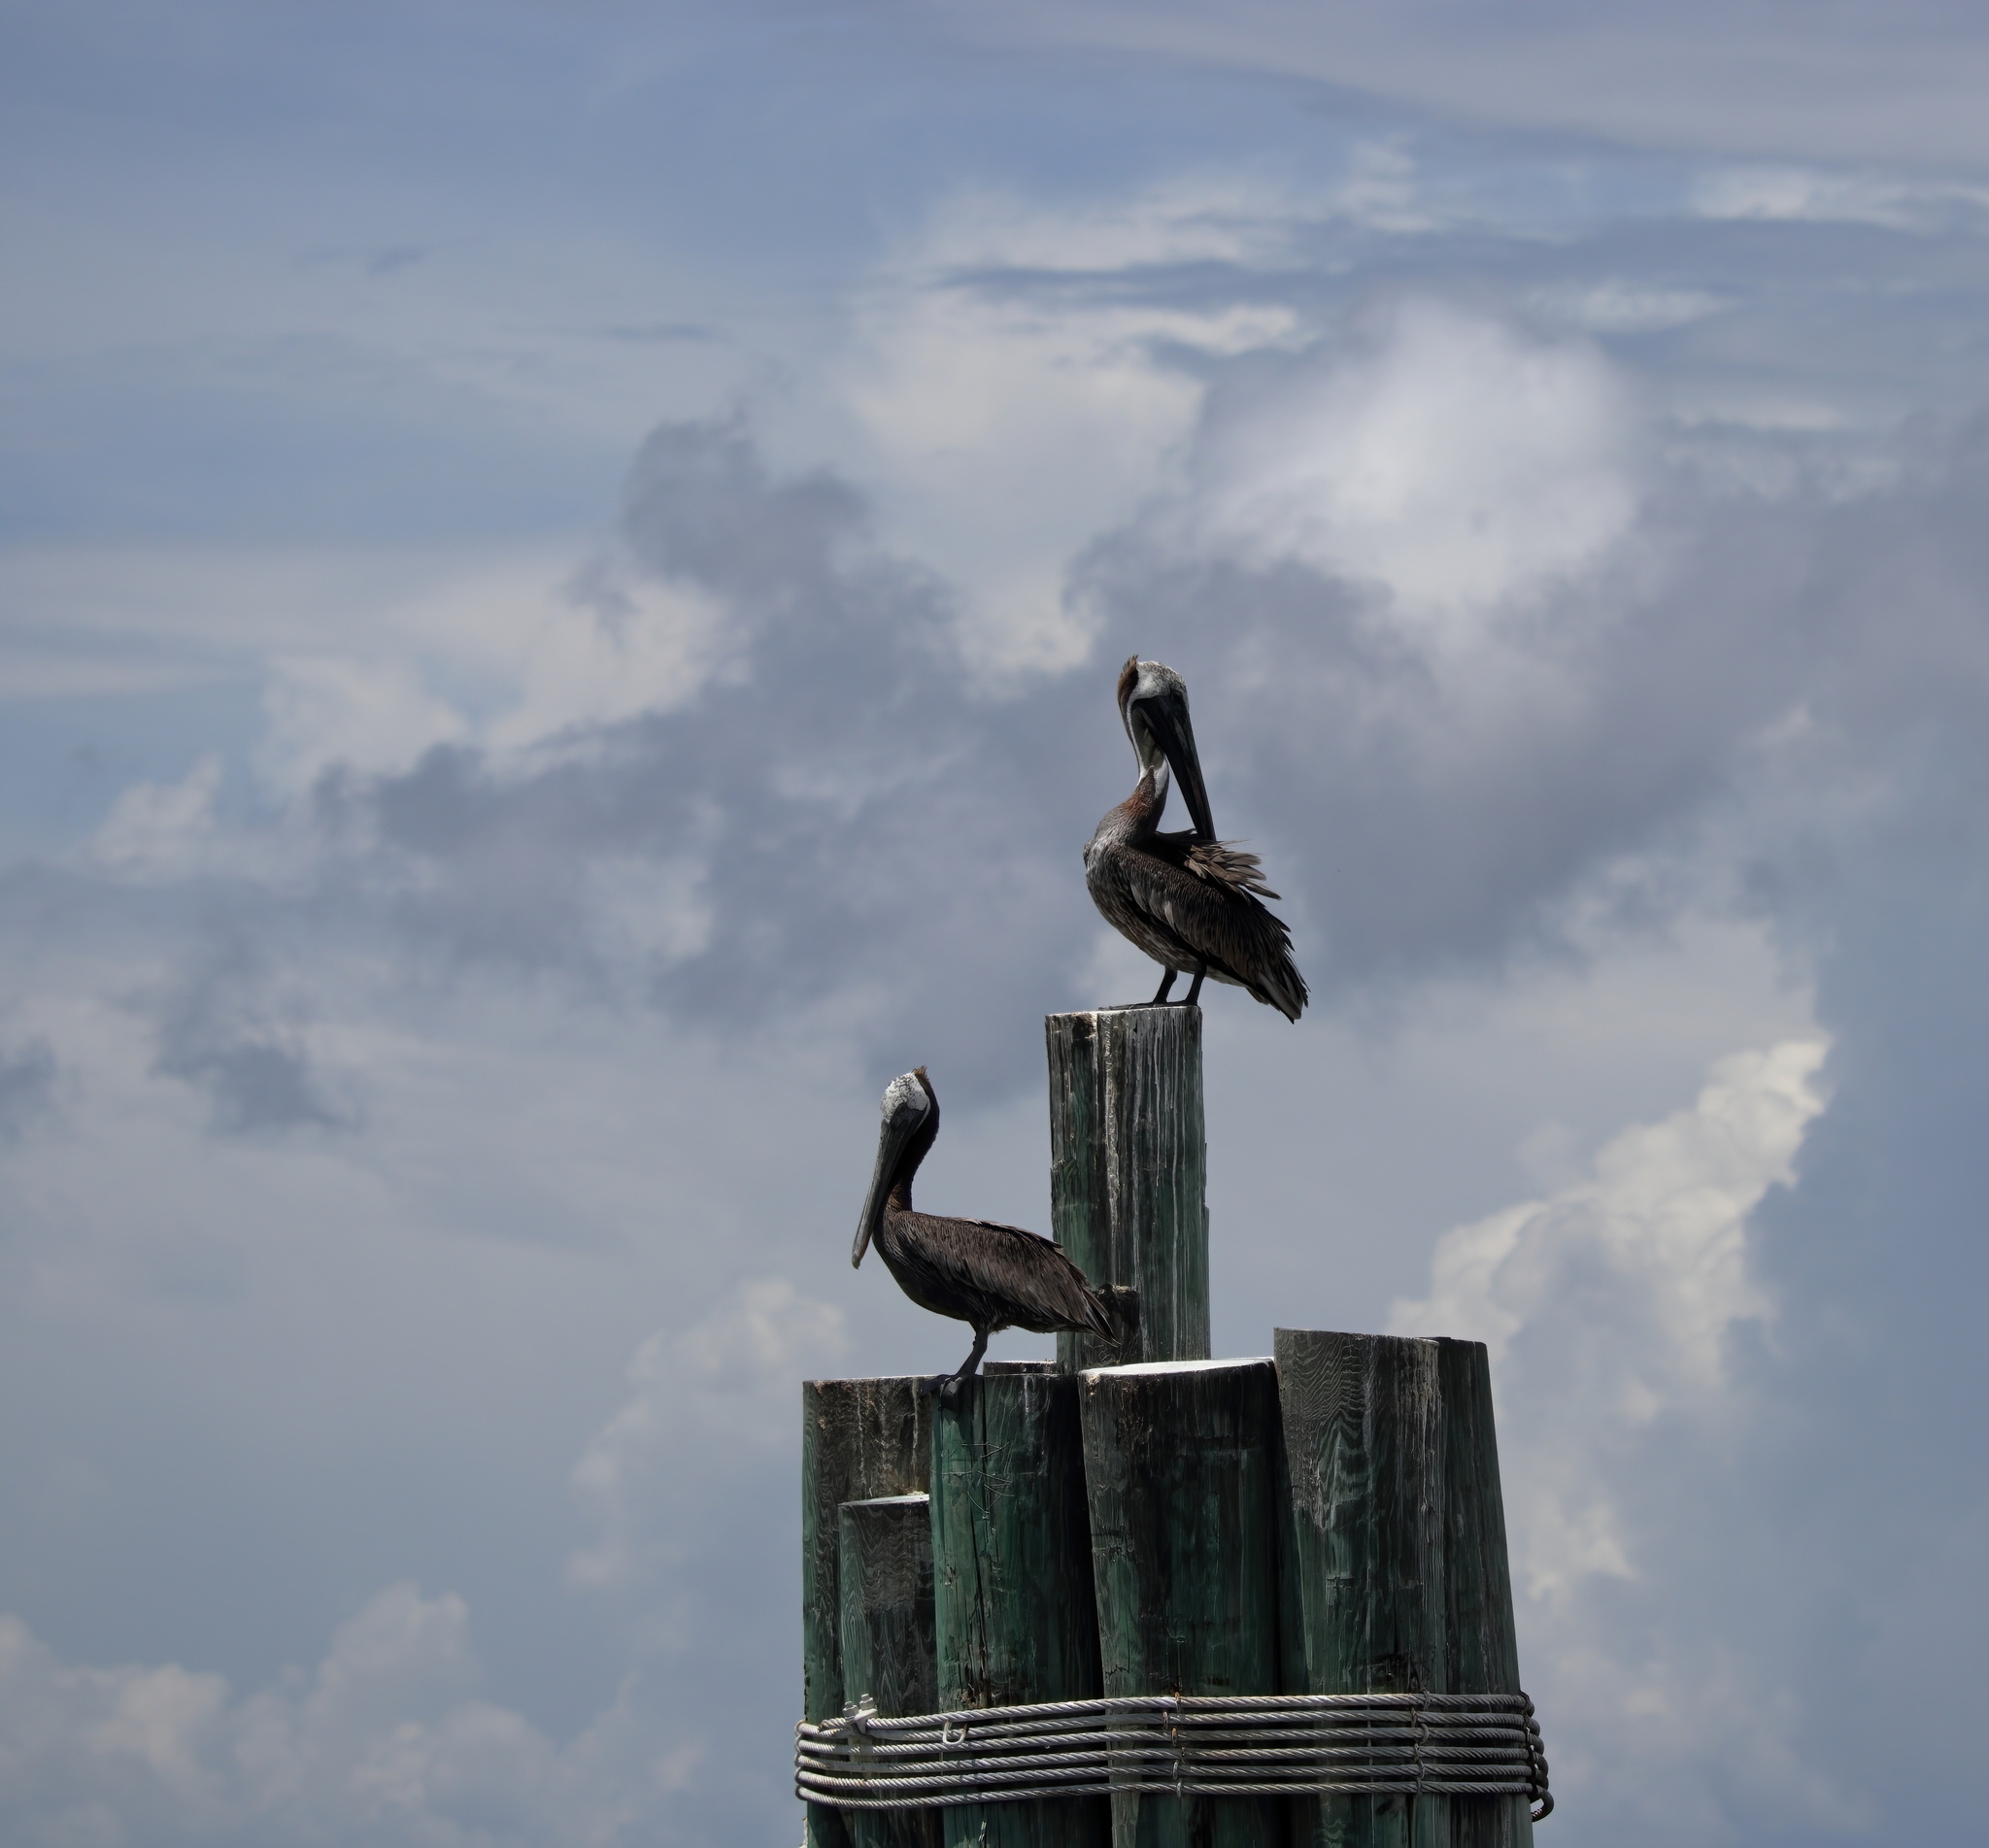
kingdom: Animalia
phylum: Chordata
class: Aves
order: Pelecaniformes
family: Pelecanidae
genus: Pelecanus
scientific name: Pelecanus occidentalis
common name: Brown pelican
